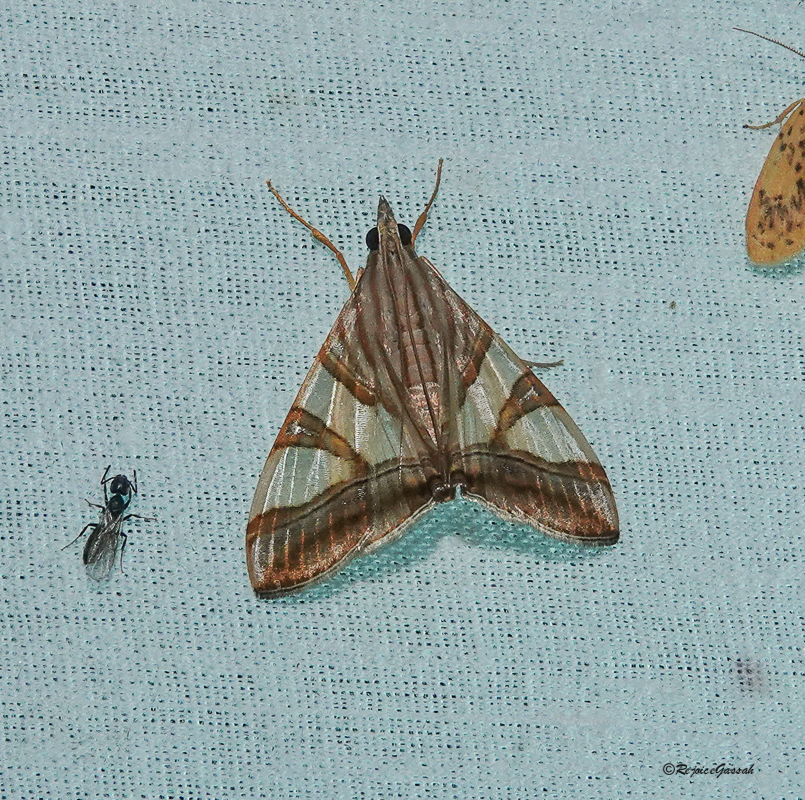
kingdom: Animalia
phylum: Arthropoda
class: Insecta
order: Lepidoptera
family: Crambidae
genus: Agrioglypta
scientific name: Agrioglypta zelimalis
